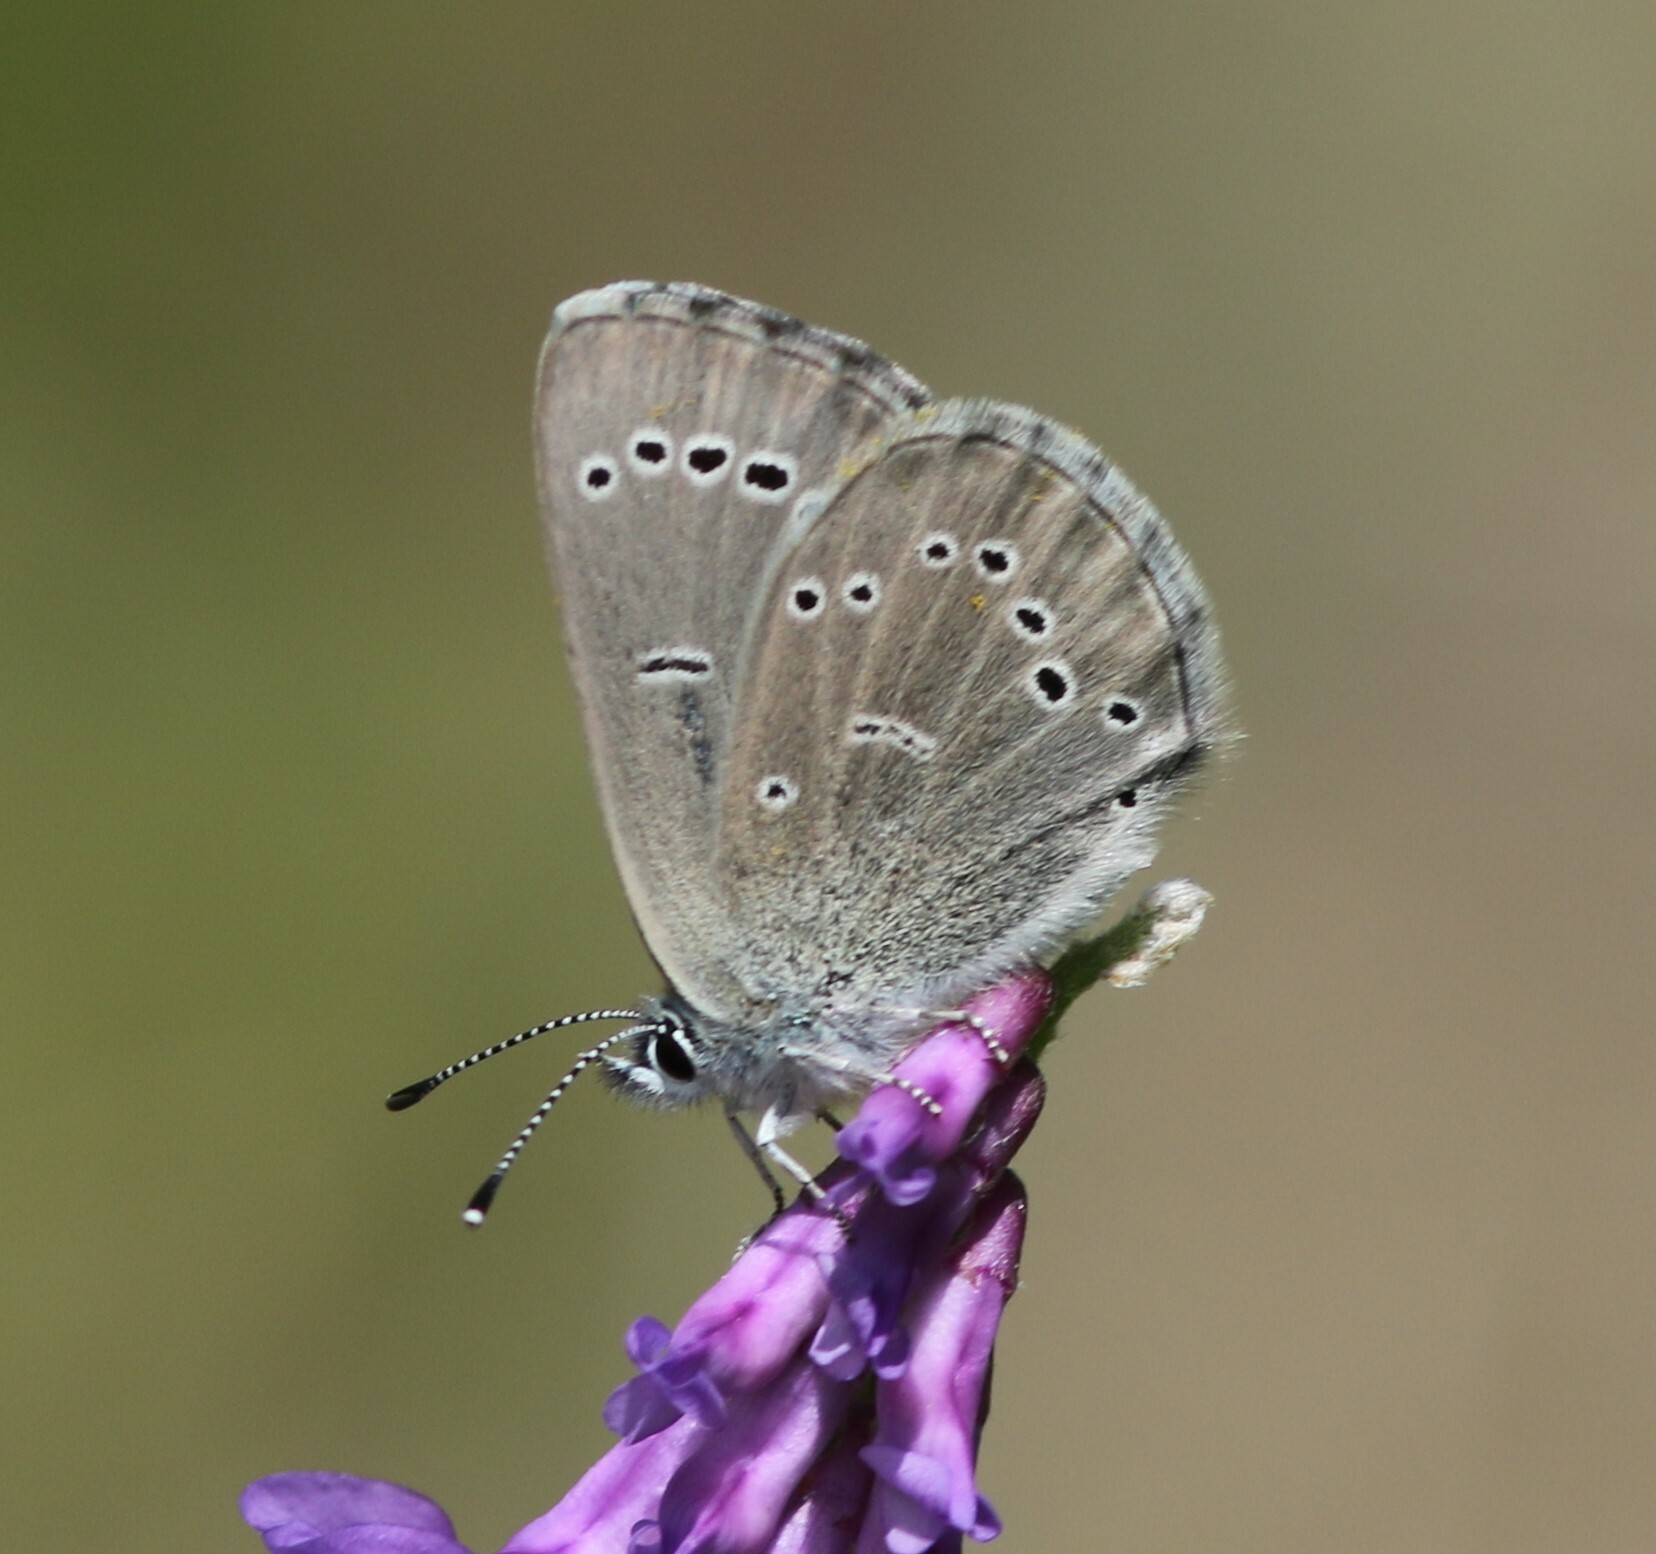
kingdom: Animalia
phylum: Arthropoda
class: Insecta
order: Lepidoptera
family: Lycaenidae
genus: Glaucopsyche
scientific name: Glaucopsyche lygdamus
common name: Silvery blue
